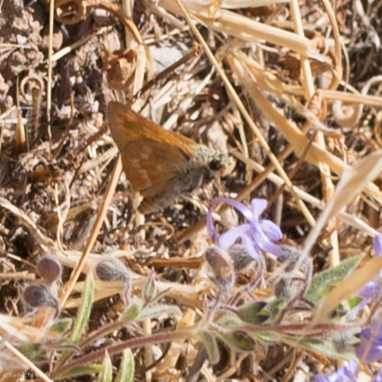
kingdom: Animalia
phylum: Arthropoda
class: Insecta
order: Lepidoptera
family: Hesperiidae
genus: Ochlodes
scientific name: Ochlodes sylvanoides
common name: Woodland skipper
